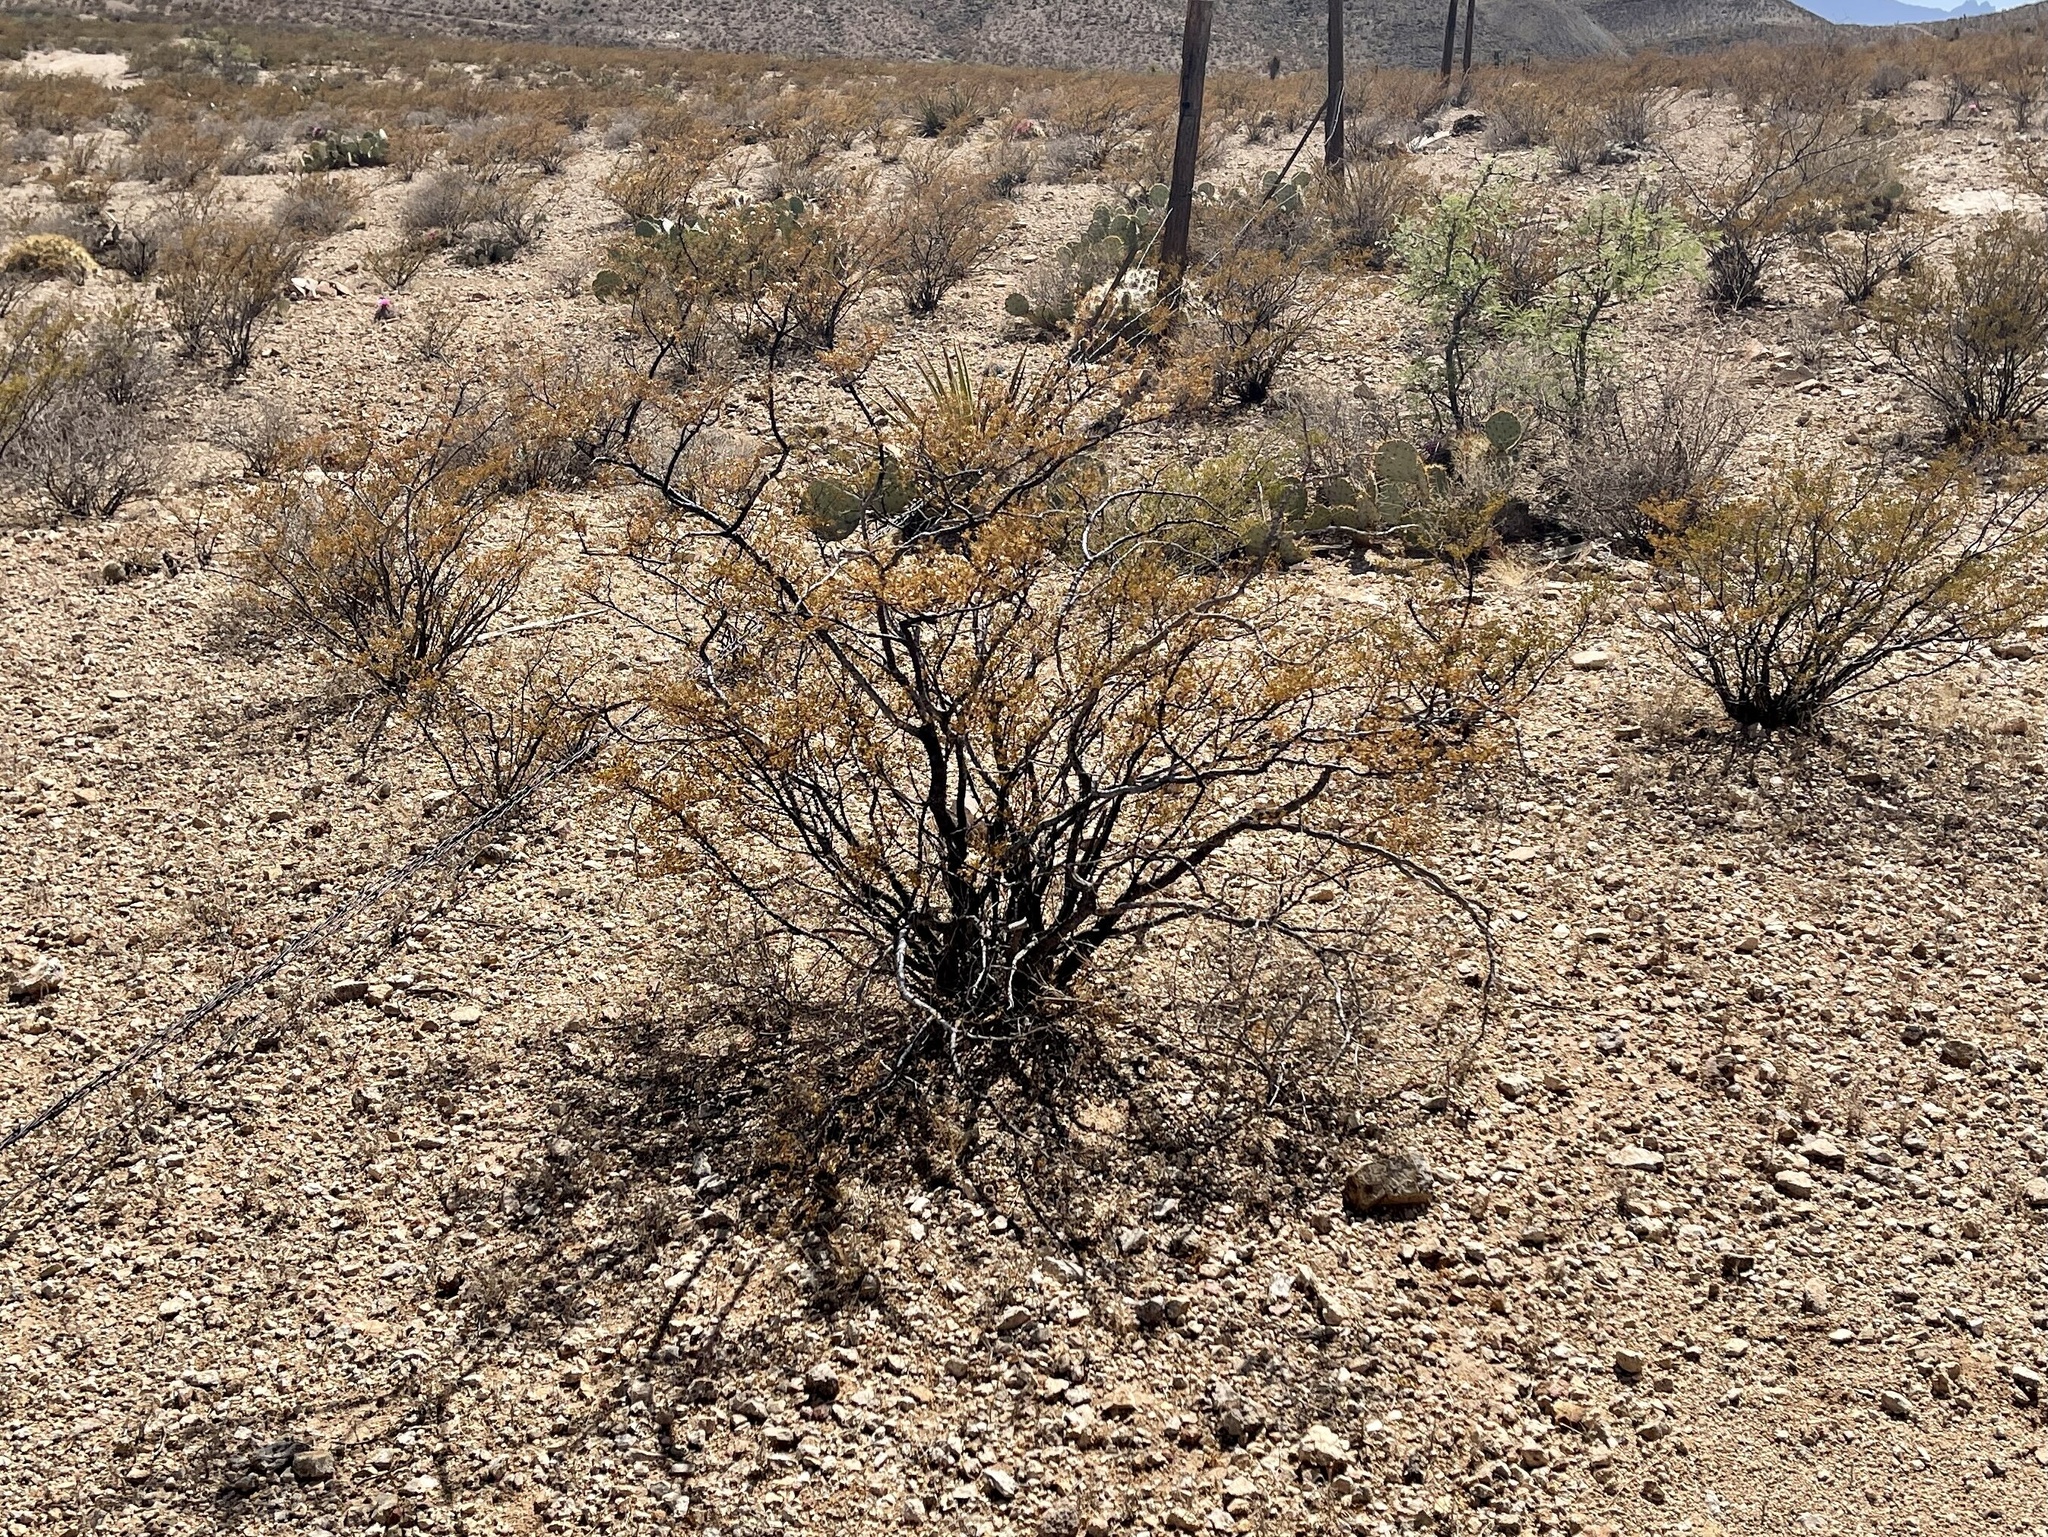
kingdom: Plantae
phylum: Tracheophyta
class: Magnoliopsida
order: Zygophyllales
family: Zygophyllaceae
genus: Larrea
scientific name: Larrea tridentata
